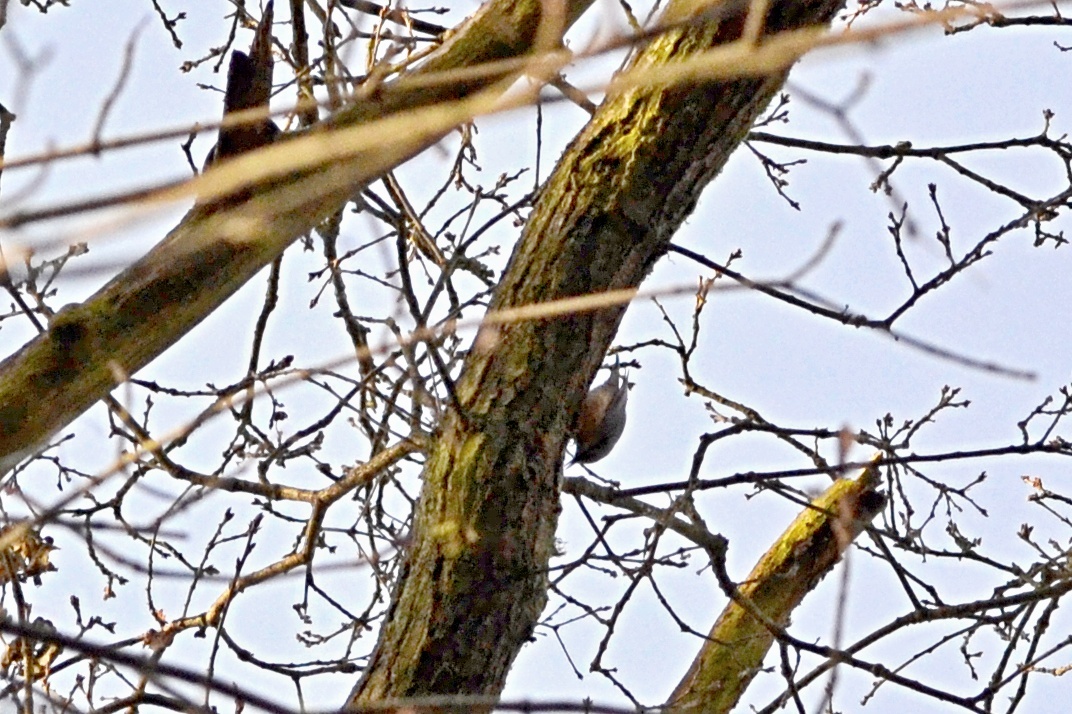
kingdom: Animalia
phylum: Chordata
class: Aves
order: Passeriformes
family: Sittidae
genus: Sitta
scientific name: Sitta europaea
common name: Eurasian nuthatch
